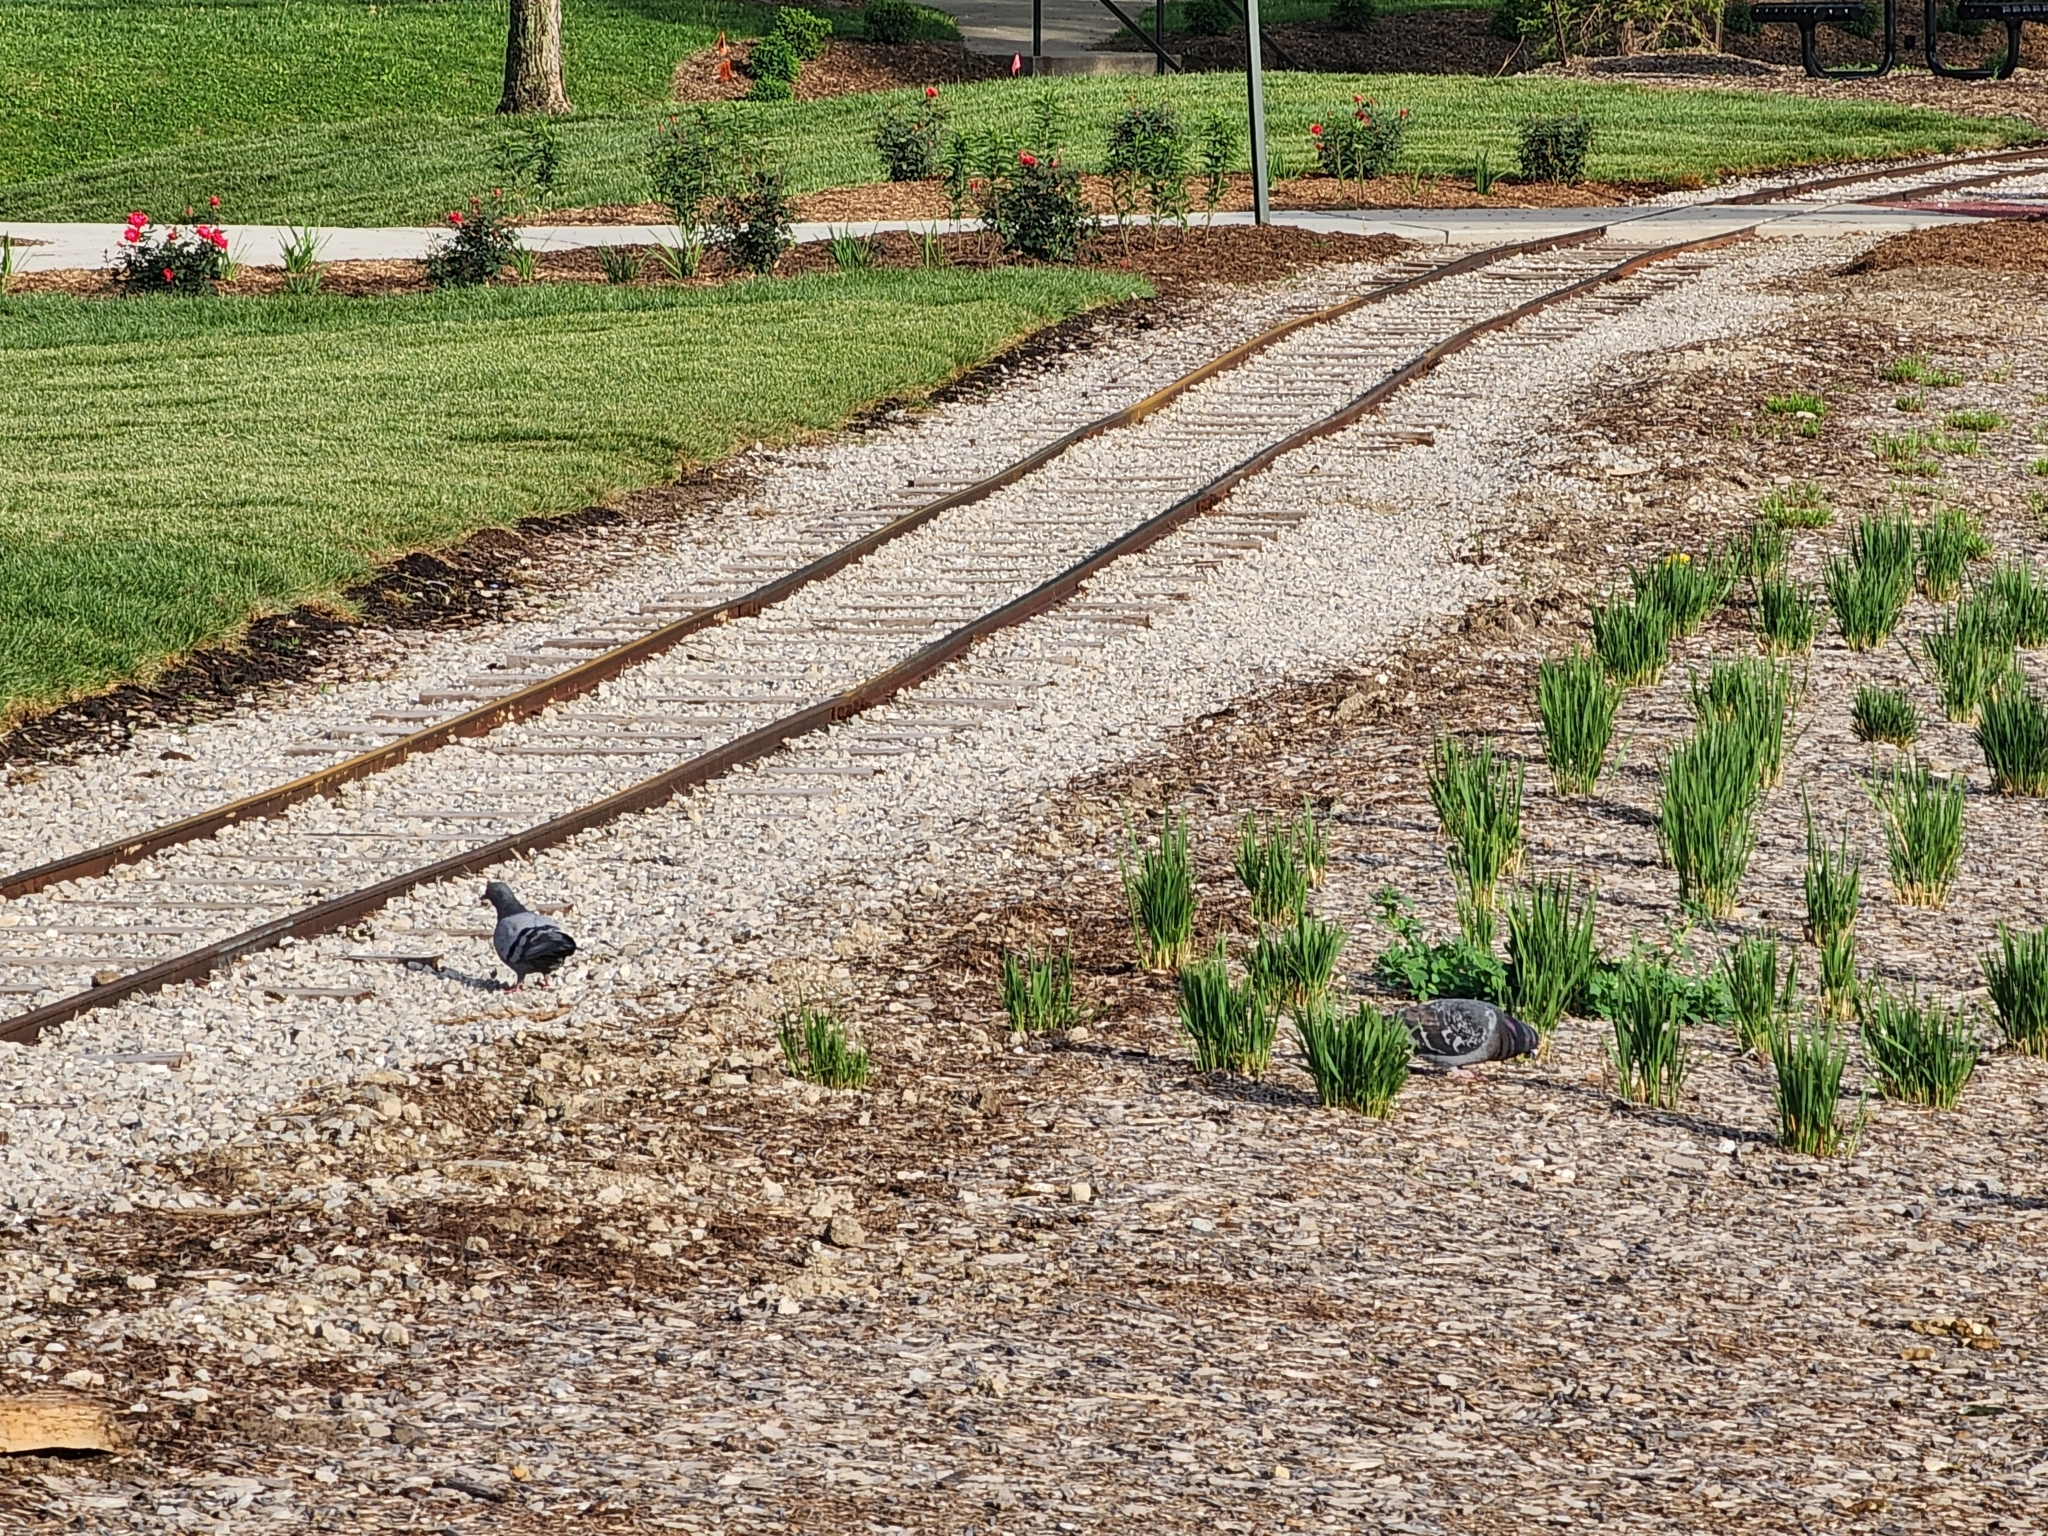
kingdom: Animalia
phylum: Chordata
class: Aves
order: Columbiformes
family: Columbidae
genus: Columba
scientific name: Columba livia
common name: Rock pigeon
